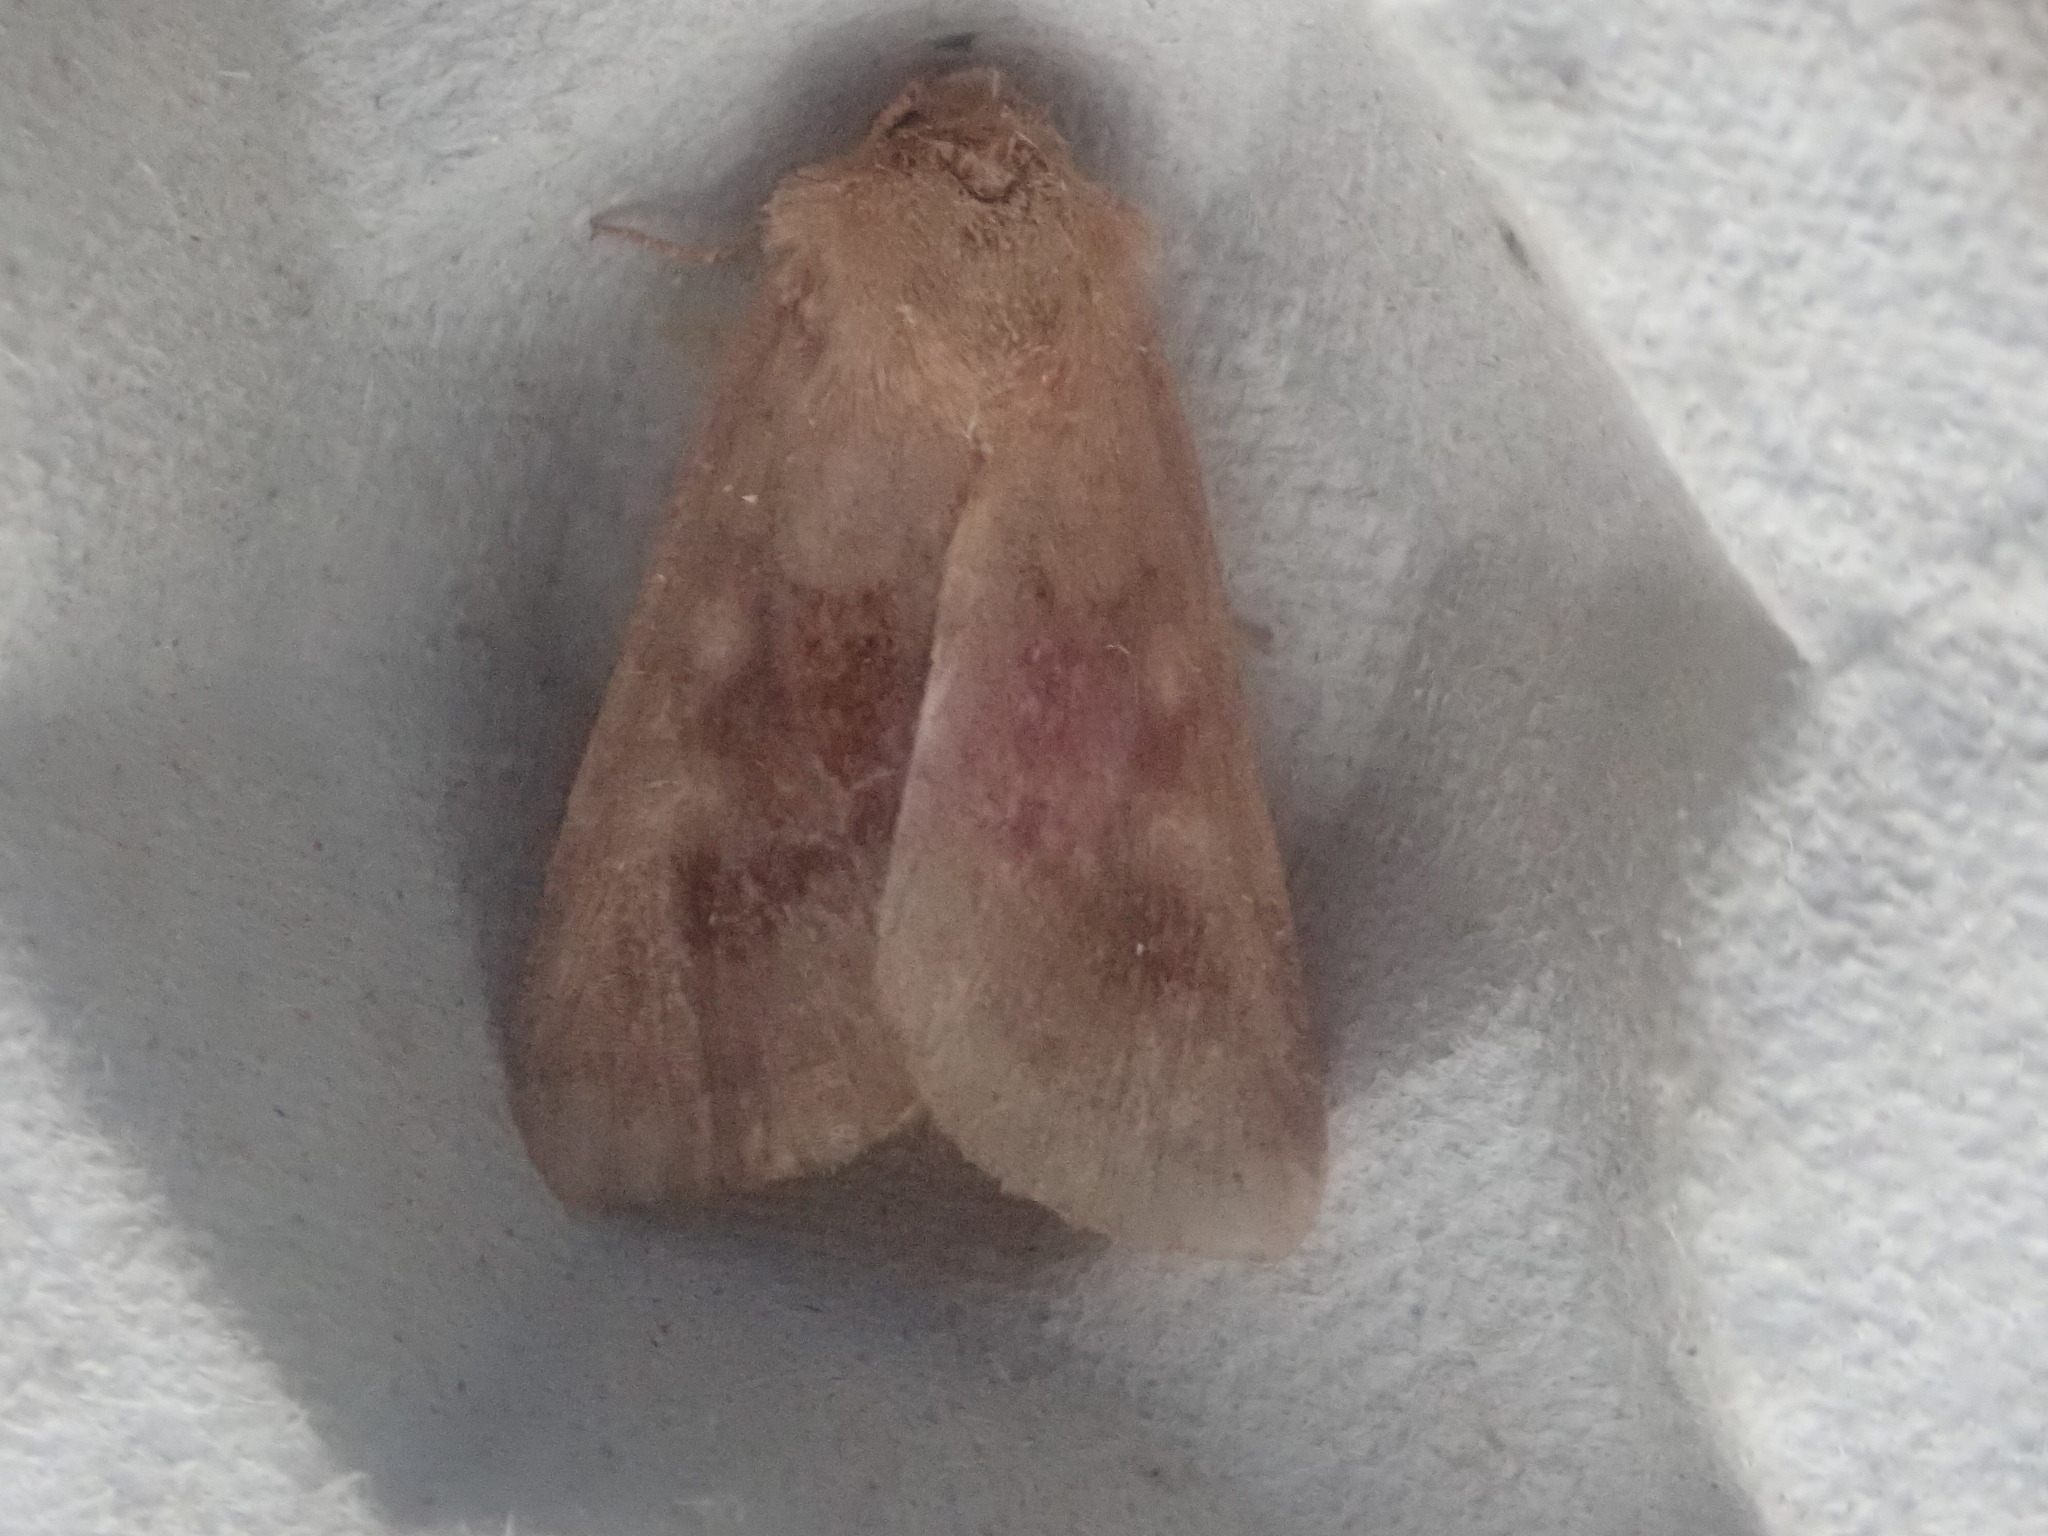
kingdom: Animalia
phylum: Arthropoda
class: Insecta
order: Lepidoptera
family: Noctuidae
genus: Nephelodes
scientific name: Nephelodes minians
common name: Bronzed cutworm
